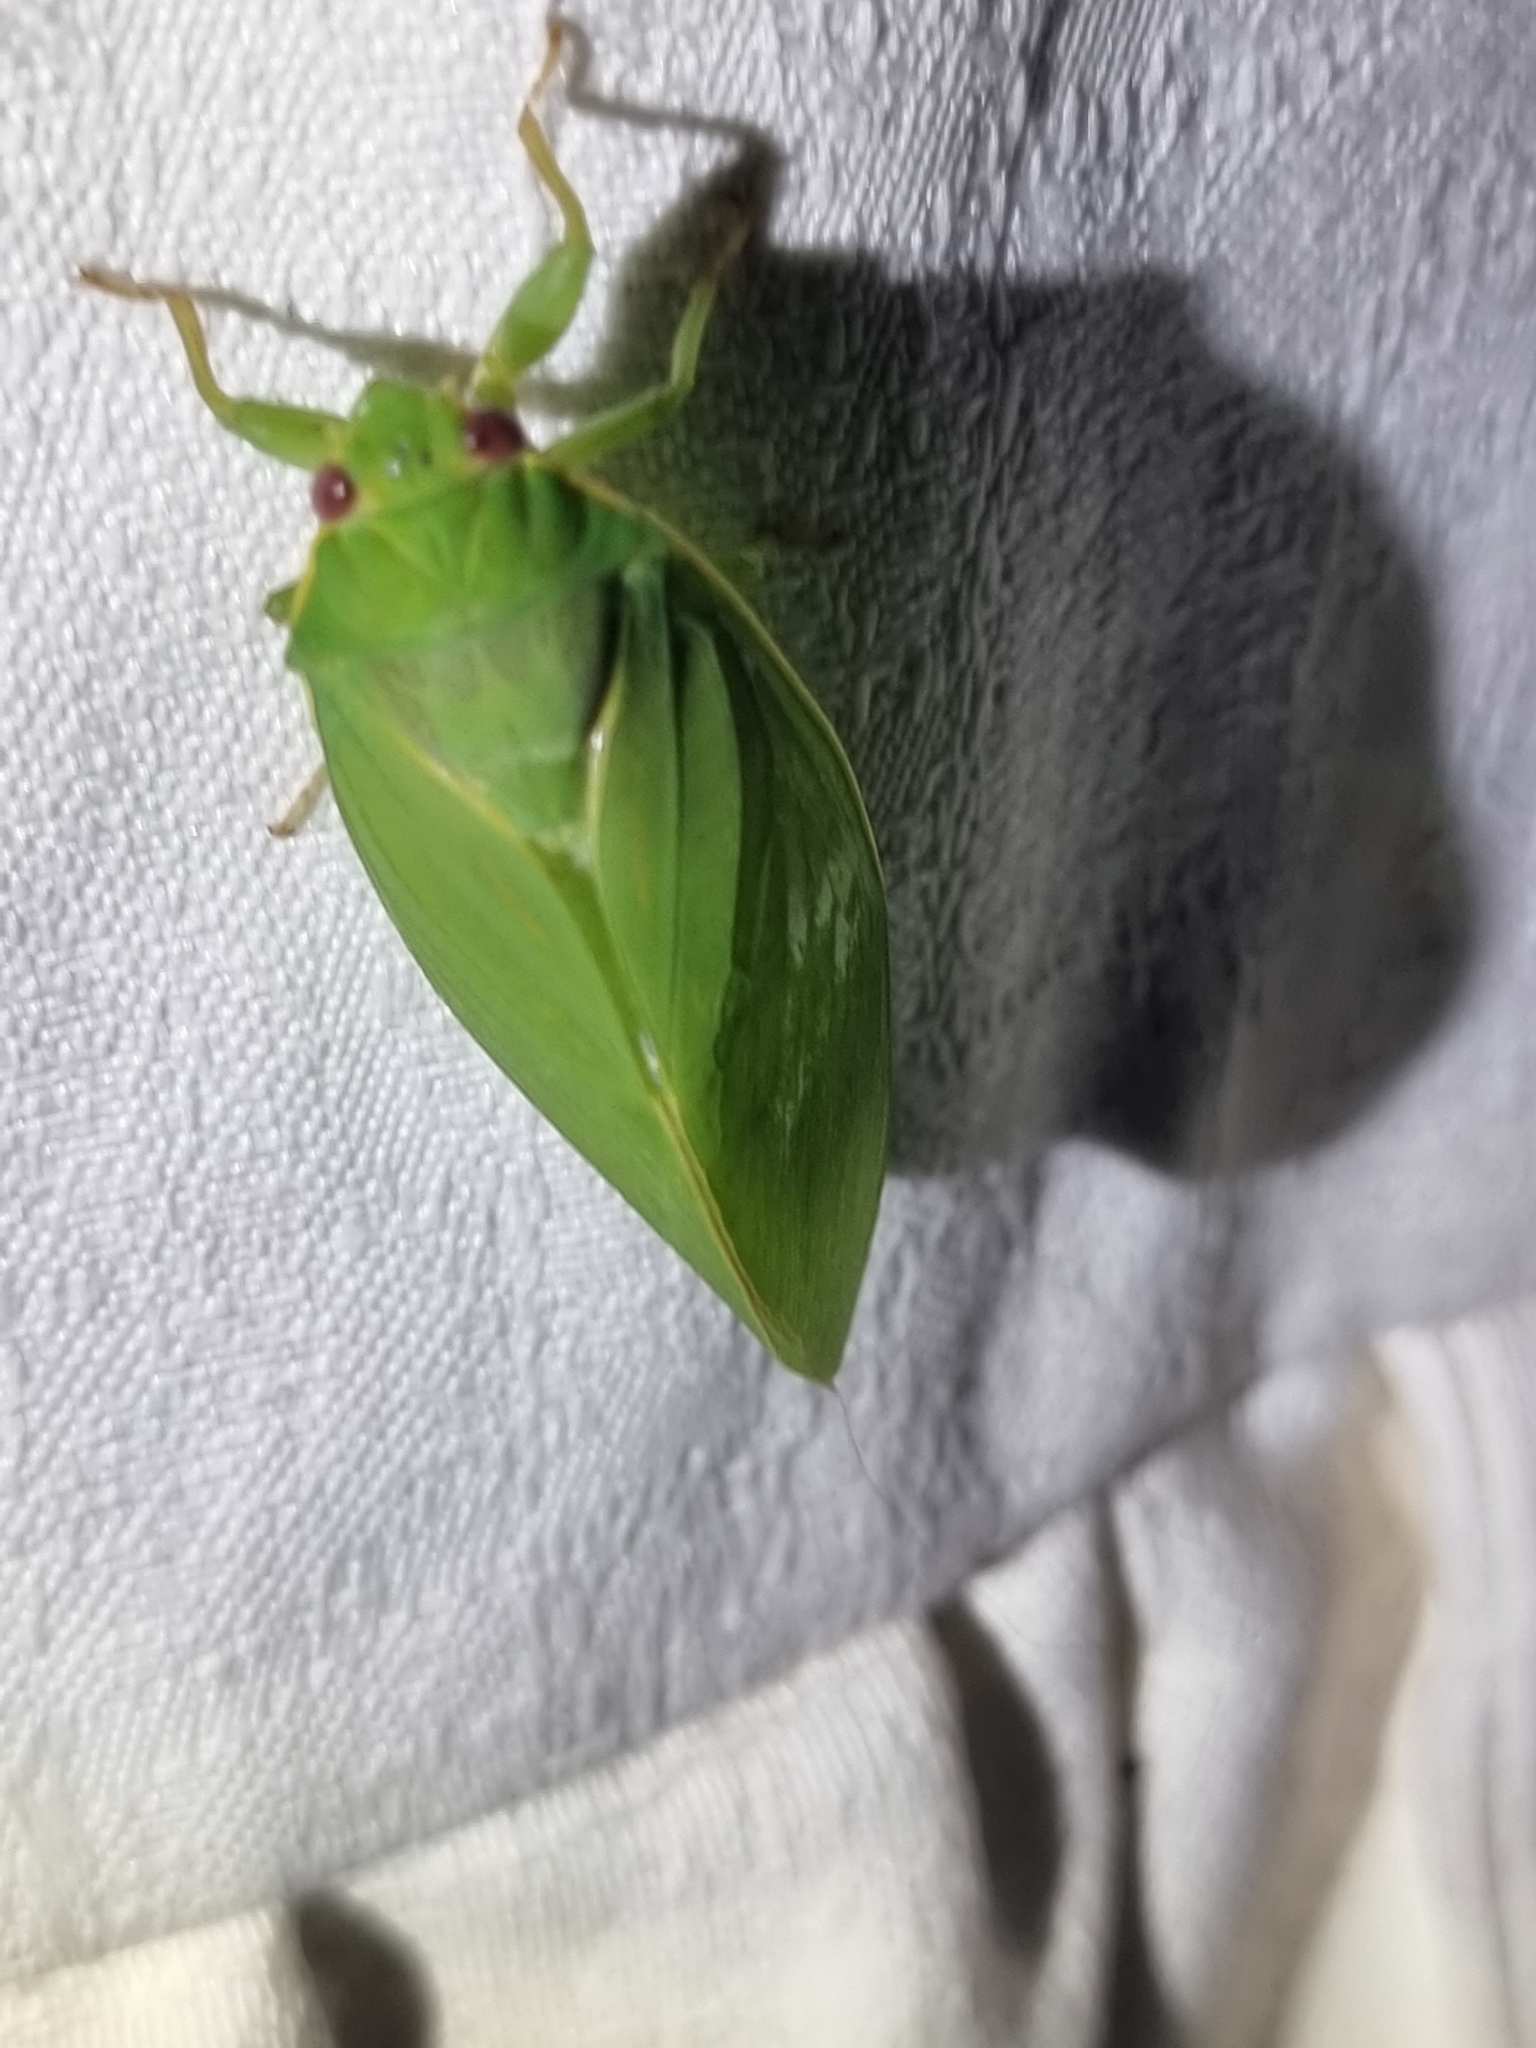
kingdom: Animalia
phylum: Arthropoda
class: Insecta
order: Hemiptera
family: Cicadidae
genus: Cystopsaltria
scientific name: Cystopsaltria immaculata
